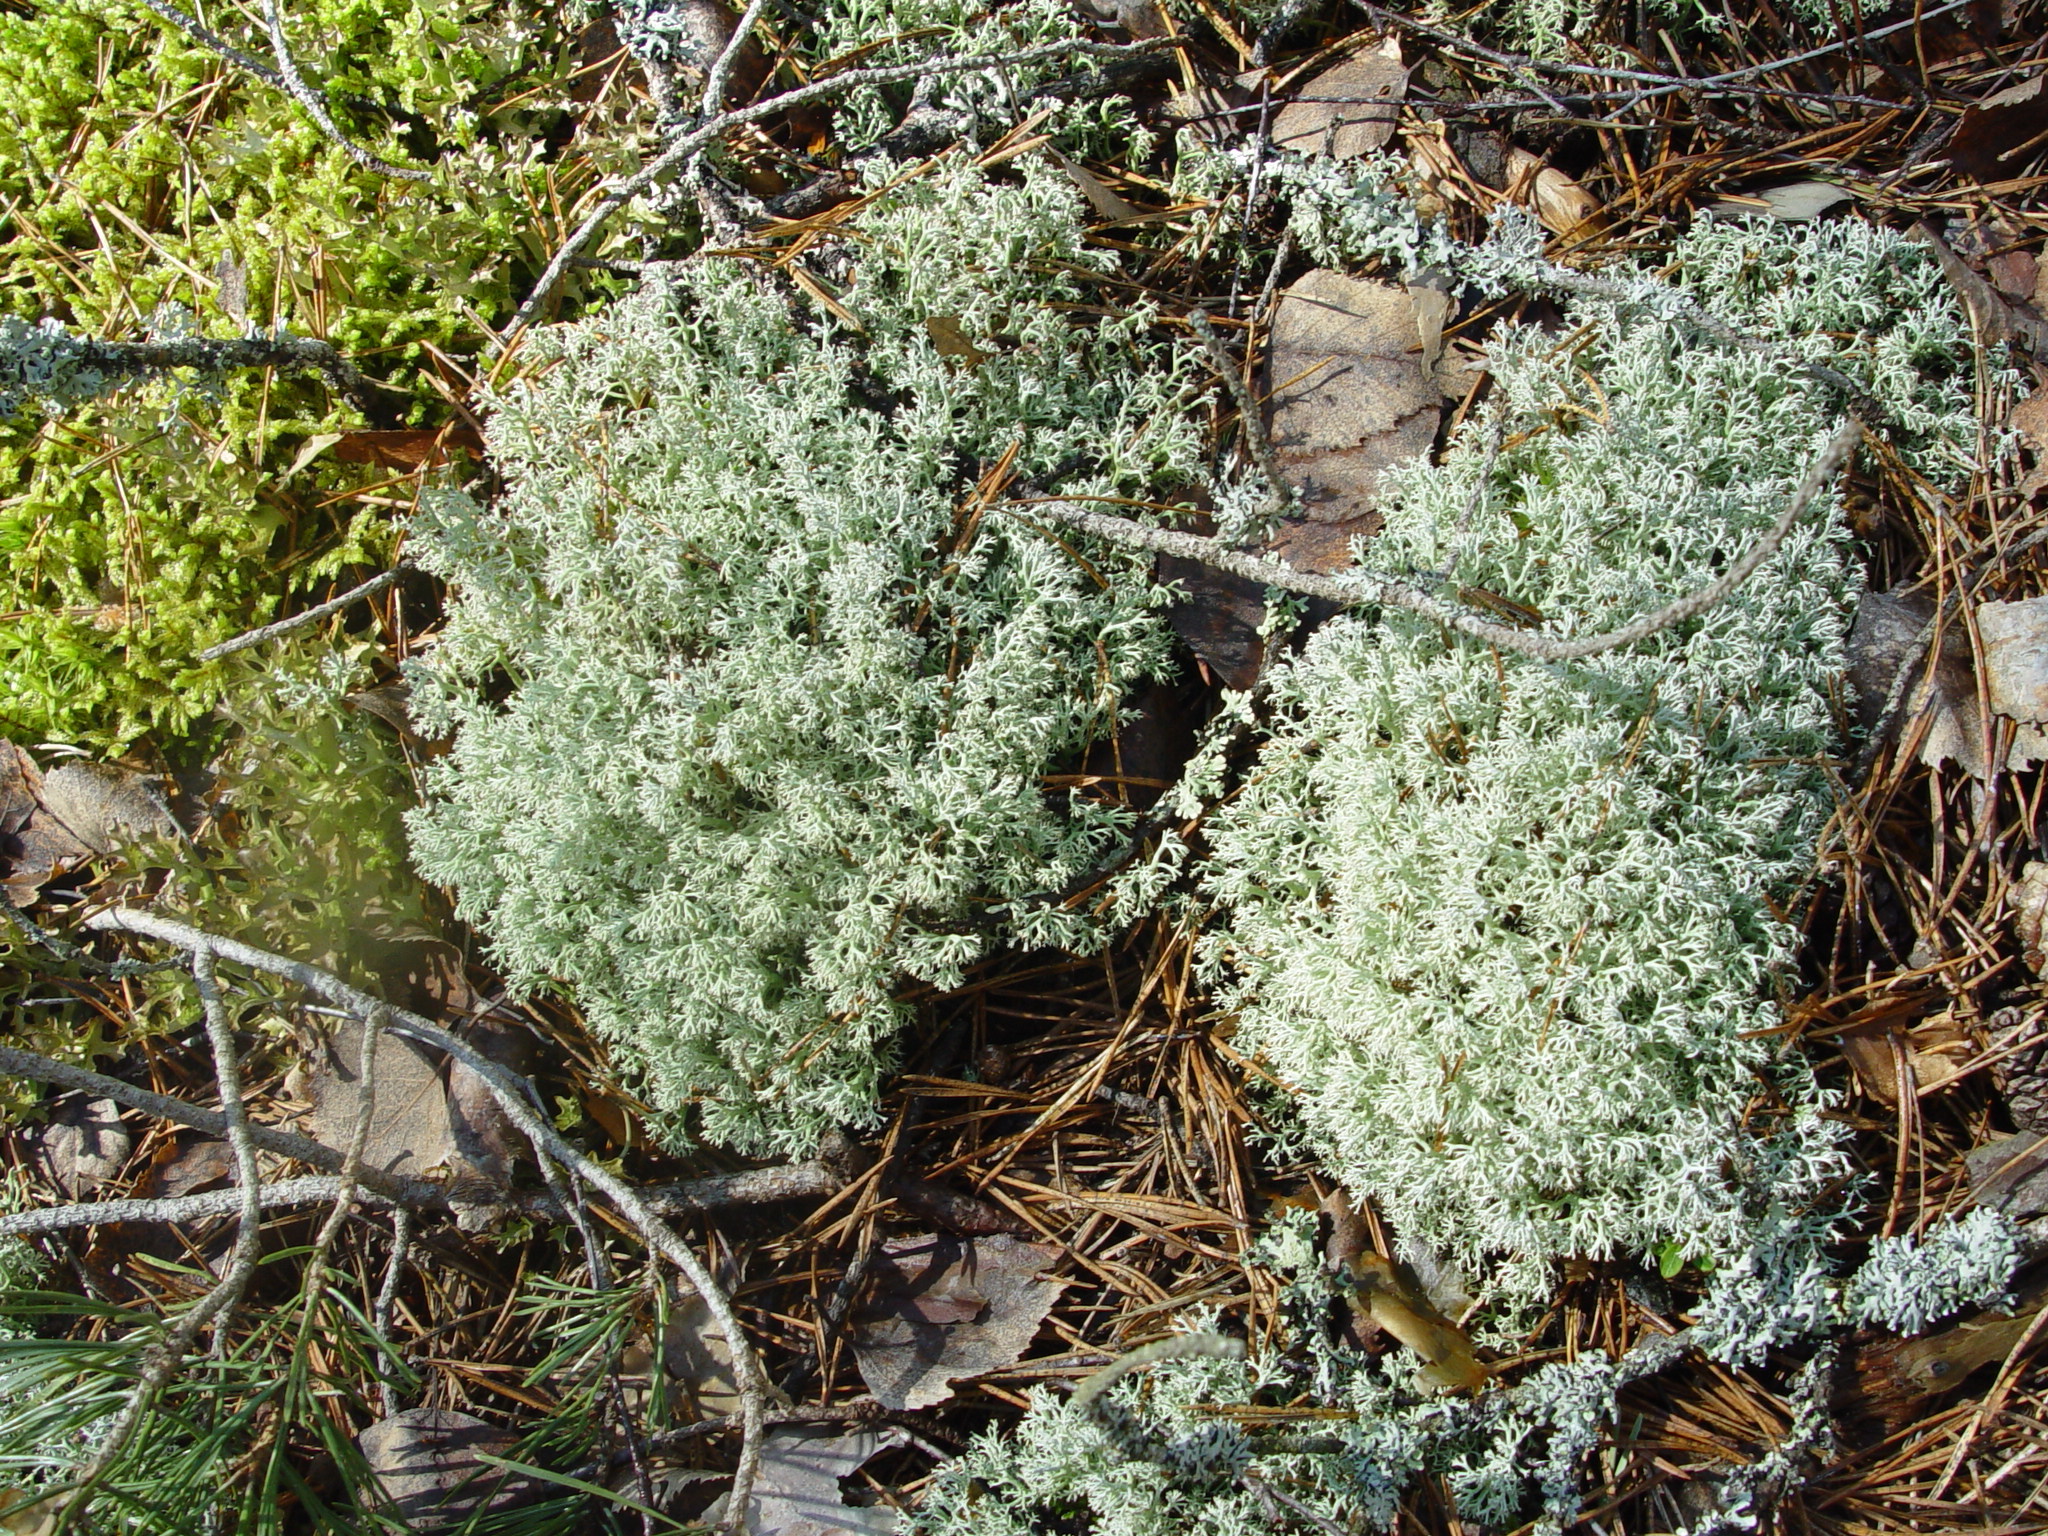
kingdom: Fungi
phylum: Ascomycota
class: Lecanoromycetes
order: Lecanorales
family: Cladoniaceae
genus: Cladonia
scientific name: Cladonia rangiferina
